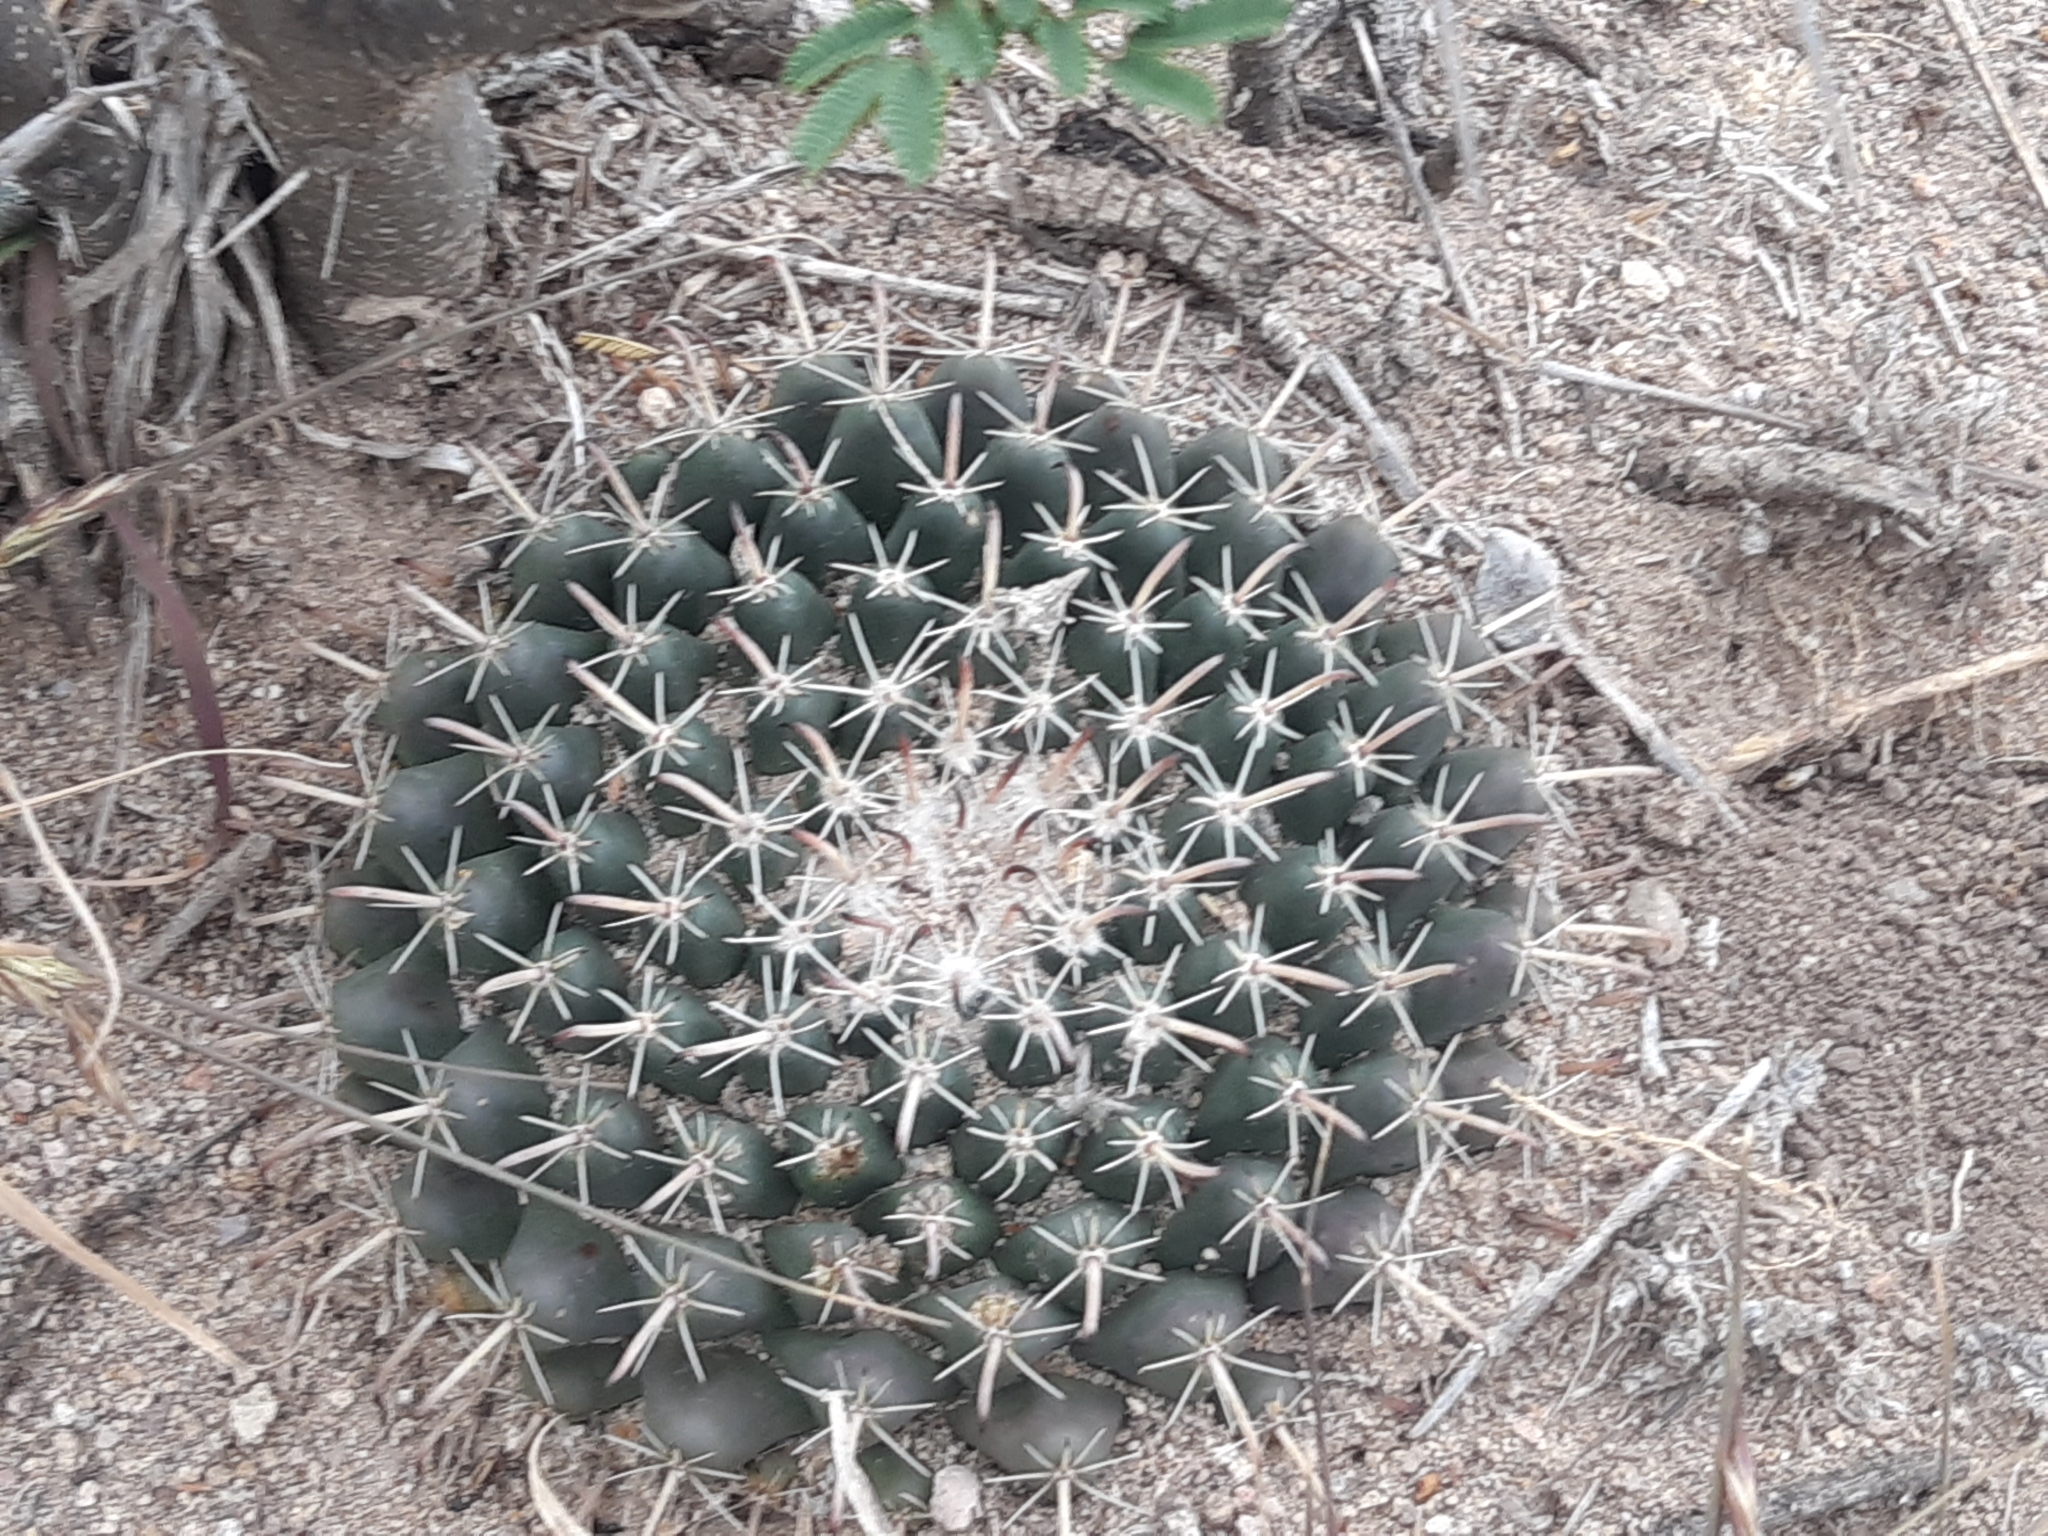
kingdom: Plantae
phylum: Tracheophyta
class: Magnoliopsida
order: Caryophyllales
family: Cactaceae
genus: Mammillaria
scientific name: Mammillaria uncinata
